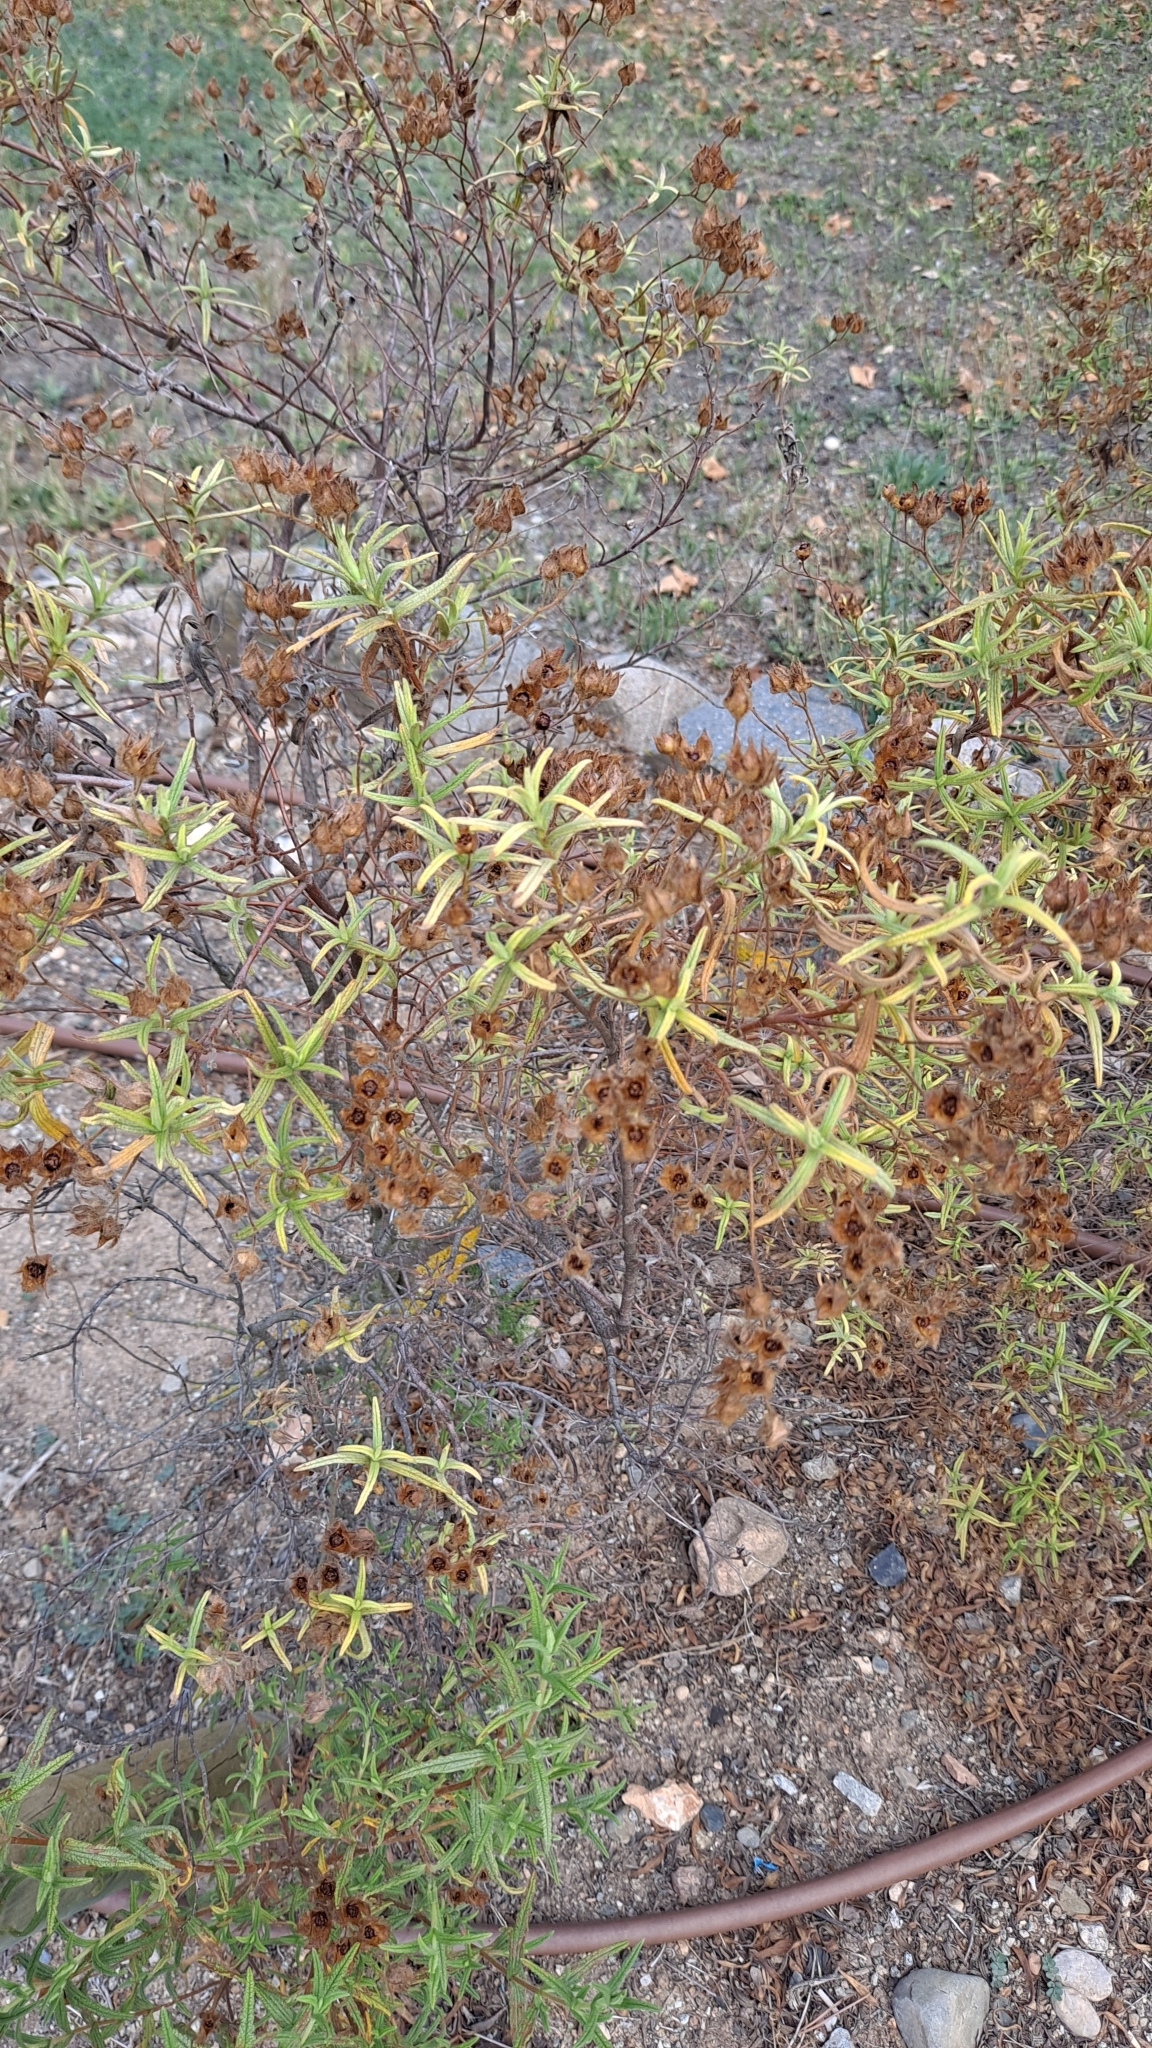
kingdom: Plantae
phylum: Tracheophyta
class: Magnoliopsida
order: Malvales
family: Cistaceae
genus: Cistus
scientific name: Cistus monspeliensis
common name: Montpelier cistus
